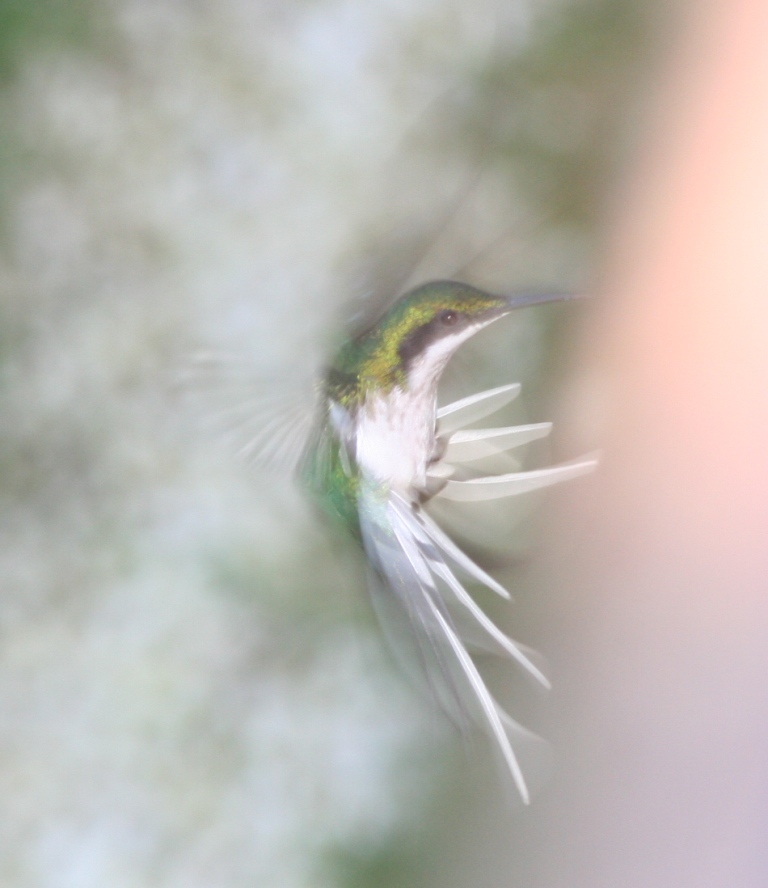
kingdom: Animalia
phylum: Chordata
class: Aves
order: Apodiformes
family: Trochilidae
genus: Heliothryx
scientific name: Heliothryx auritus
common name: Black-eared fairy
